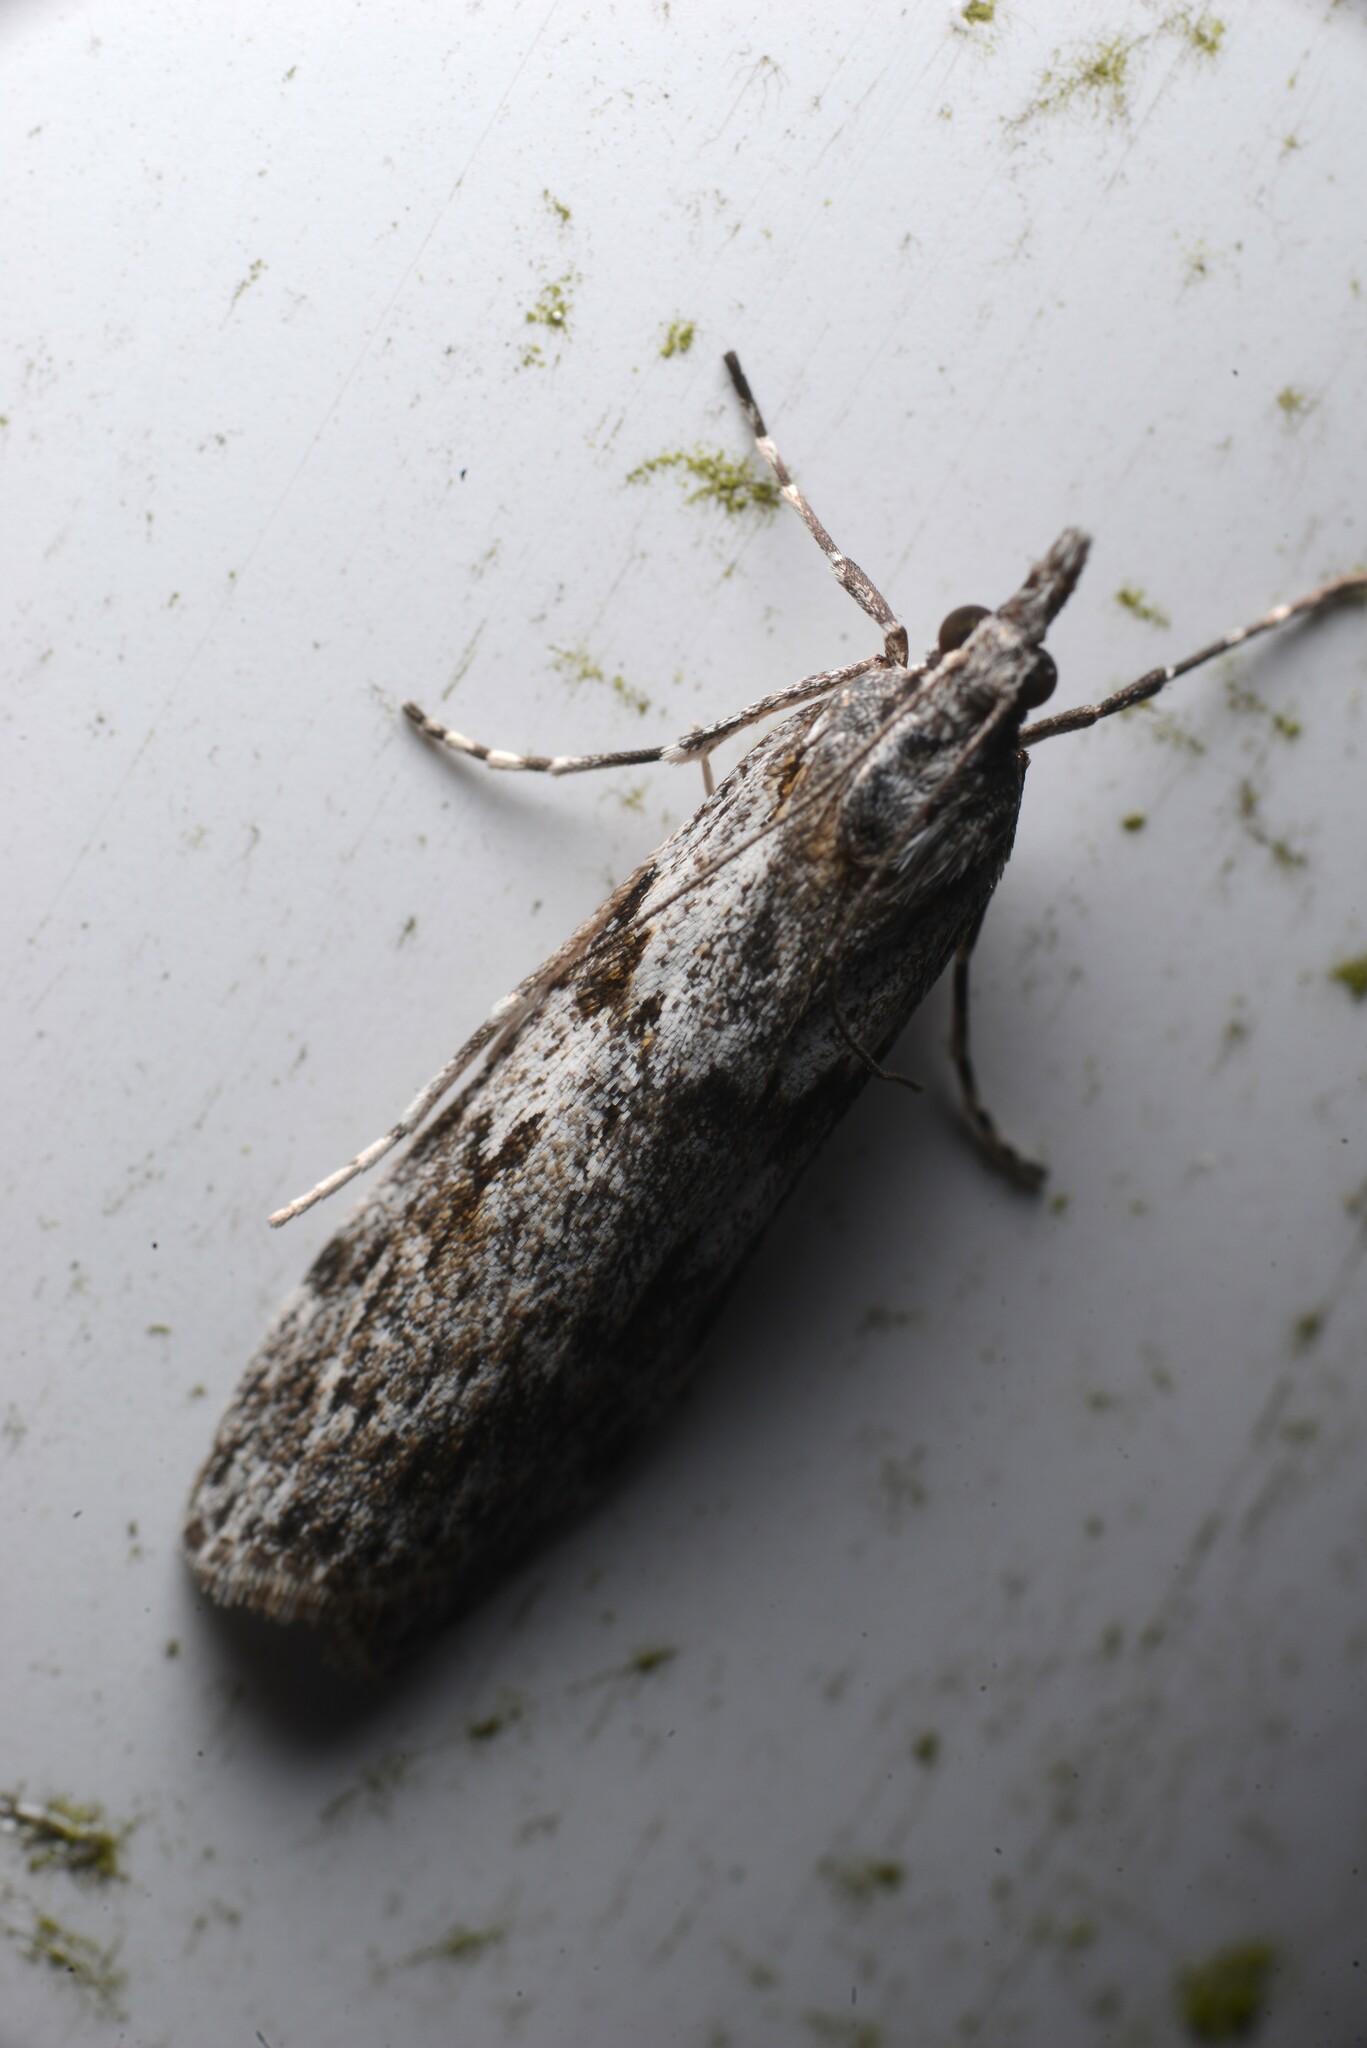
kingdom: Animalia
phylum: Arthropoda
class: Insecta
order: Lepidoptera
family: Crambidae
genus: Scoparia
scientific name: Scoparia halopis
